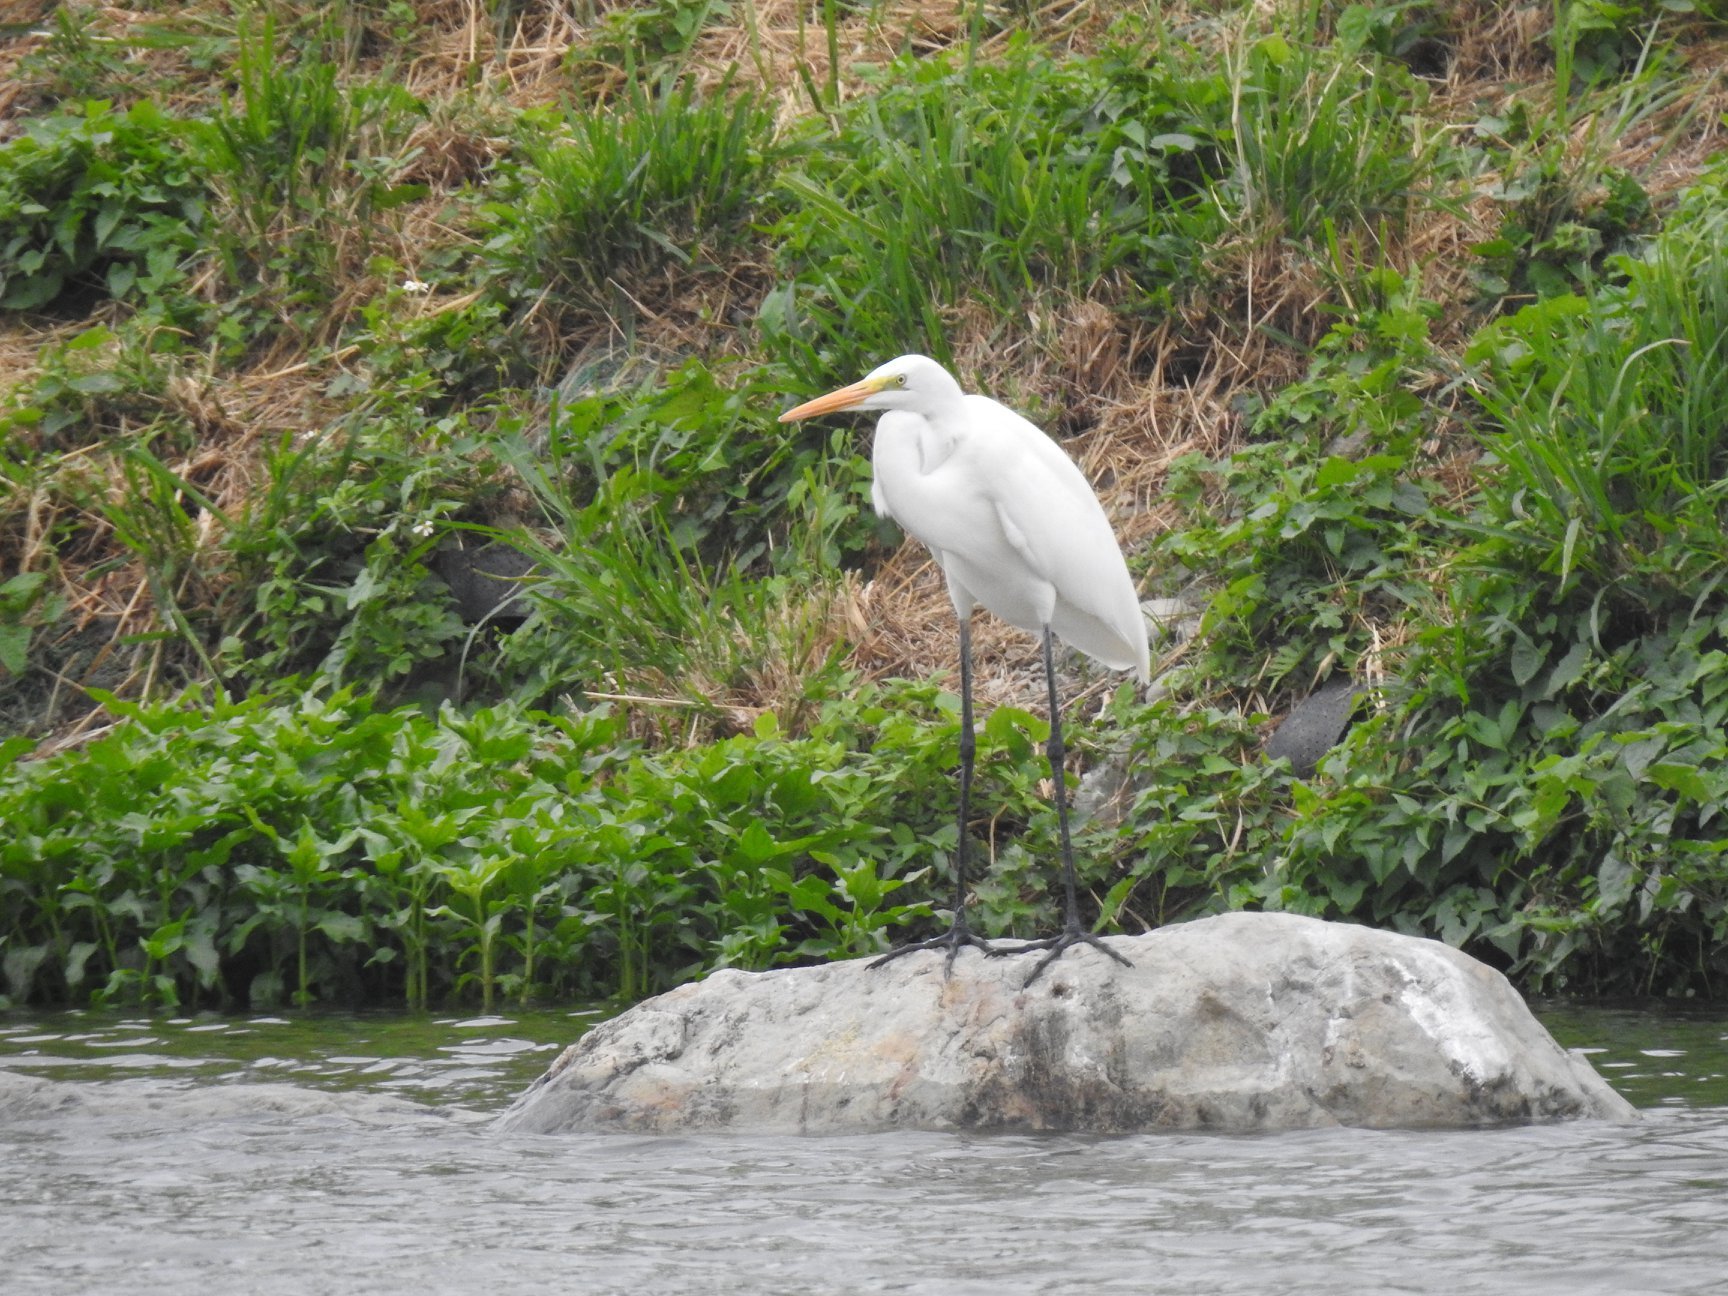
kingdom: Animalia
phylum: Chordata
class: Aves
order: Pelecaniformes
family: Ardeidae
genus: Ardea
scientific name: Ardea alba
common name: Great egret
